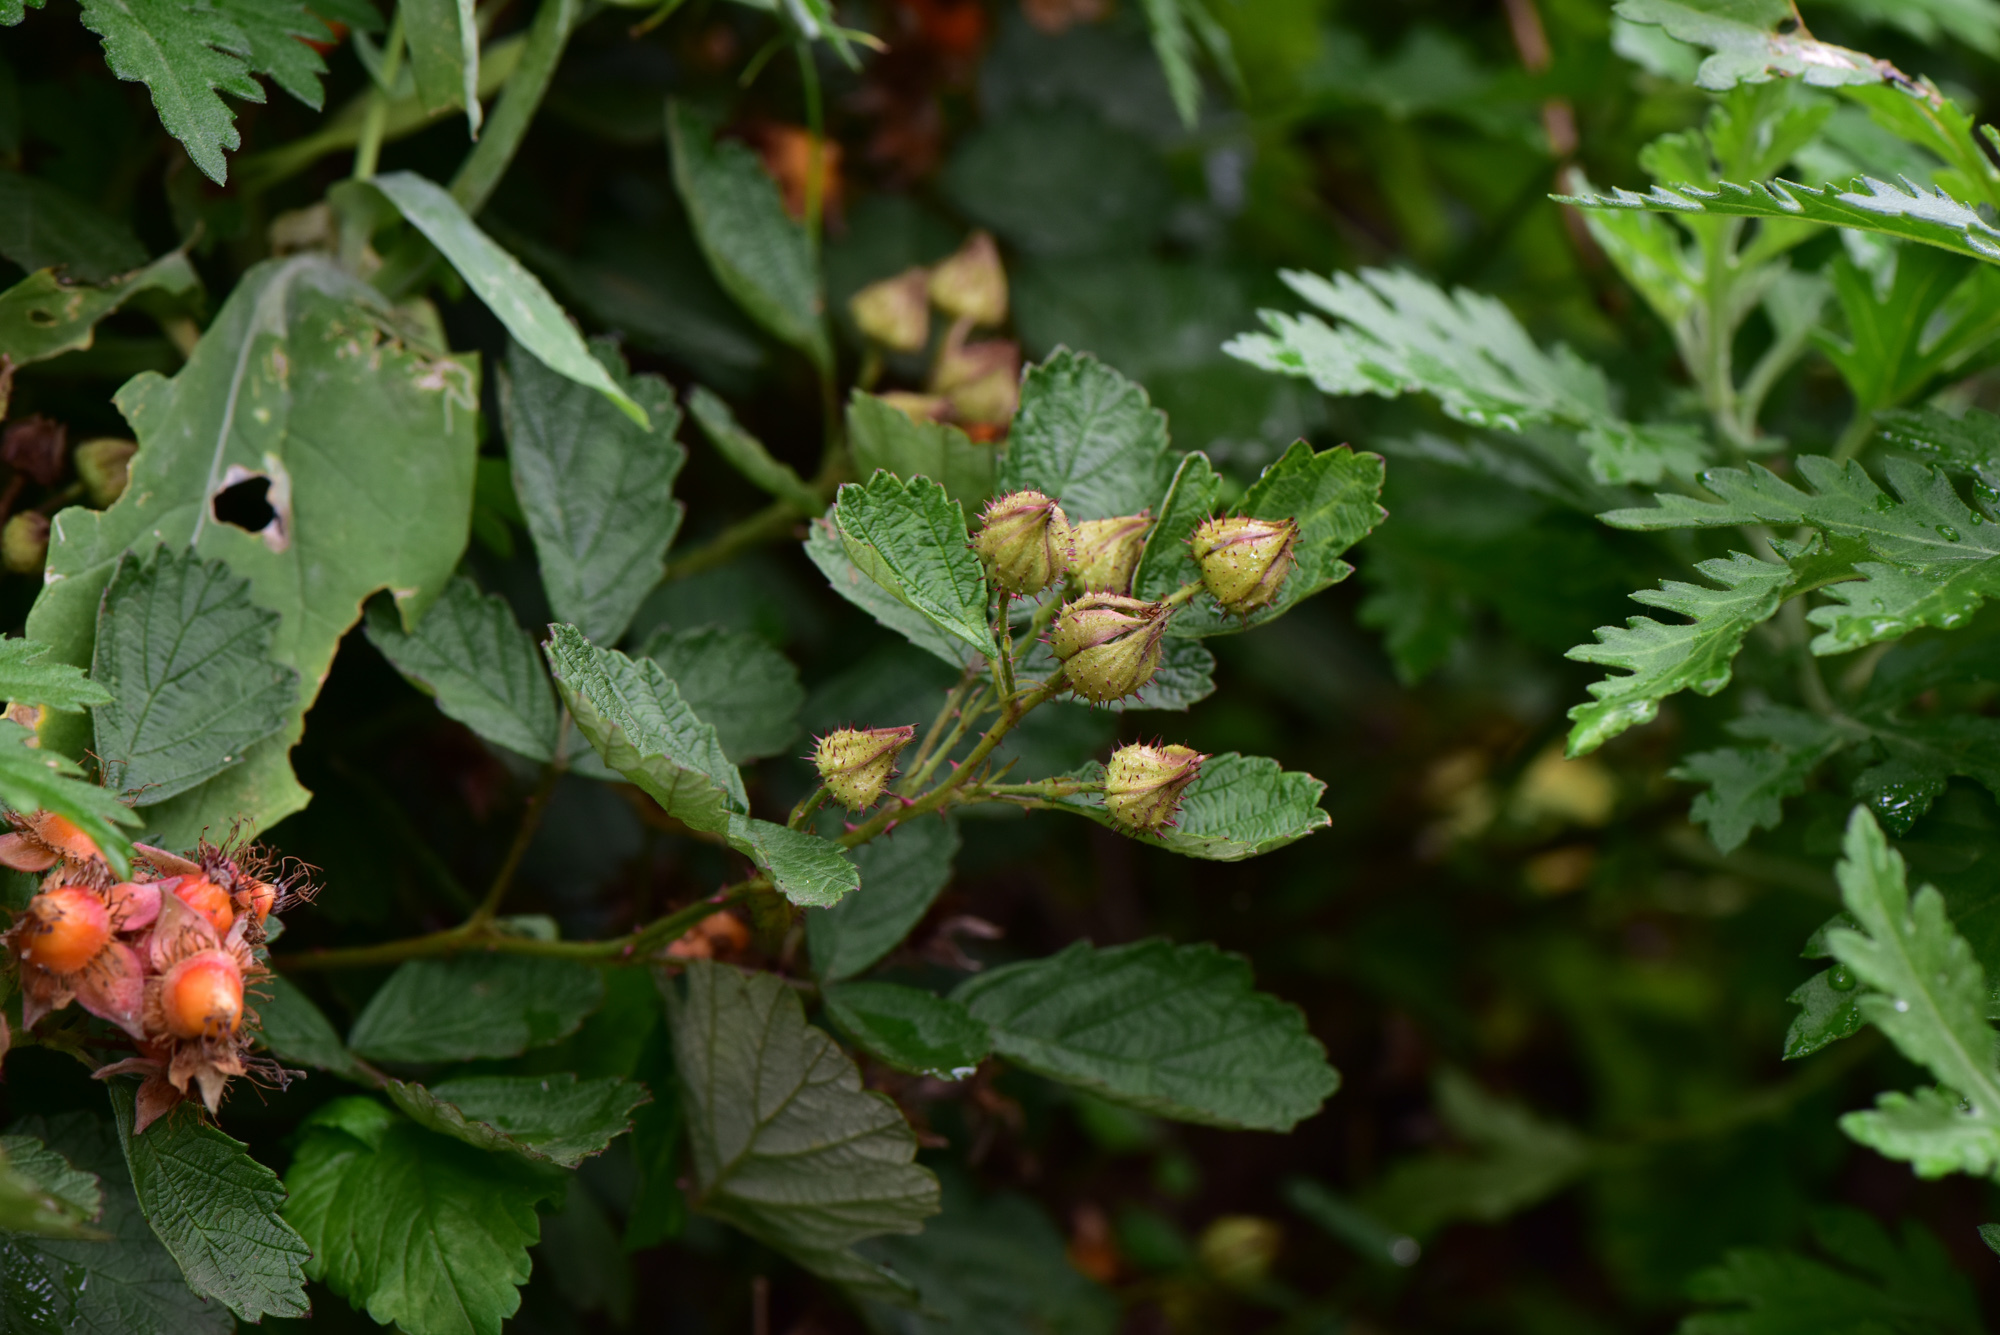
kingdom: Plantae
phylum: Tracheophyta
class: Magnoliopsida
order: Rosales
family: Rosaceae
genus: Rubus
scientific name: Rubus parvifolius
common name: Threeleaf blackberry
